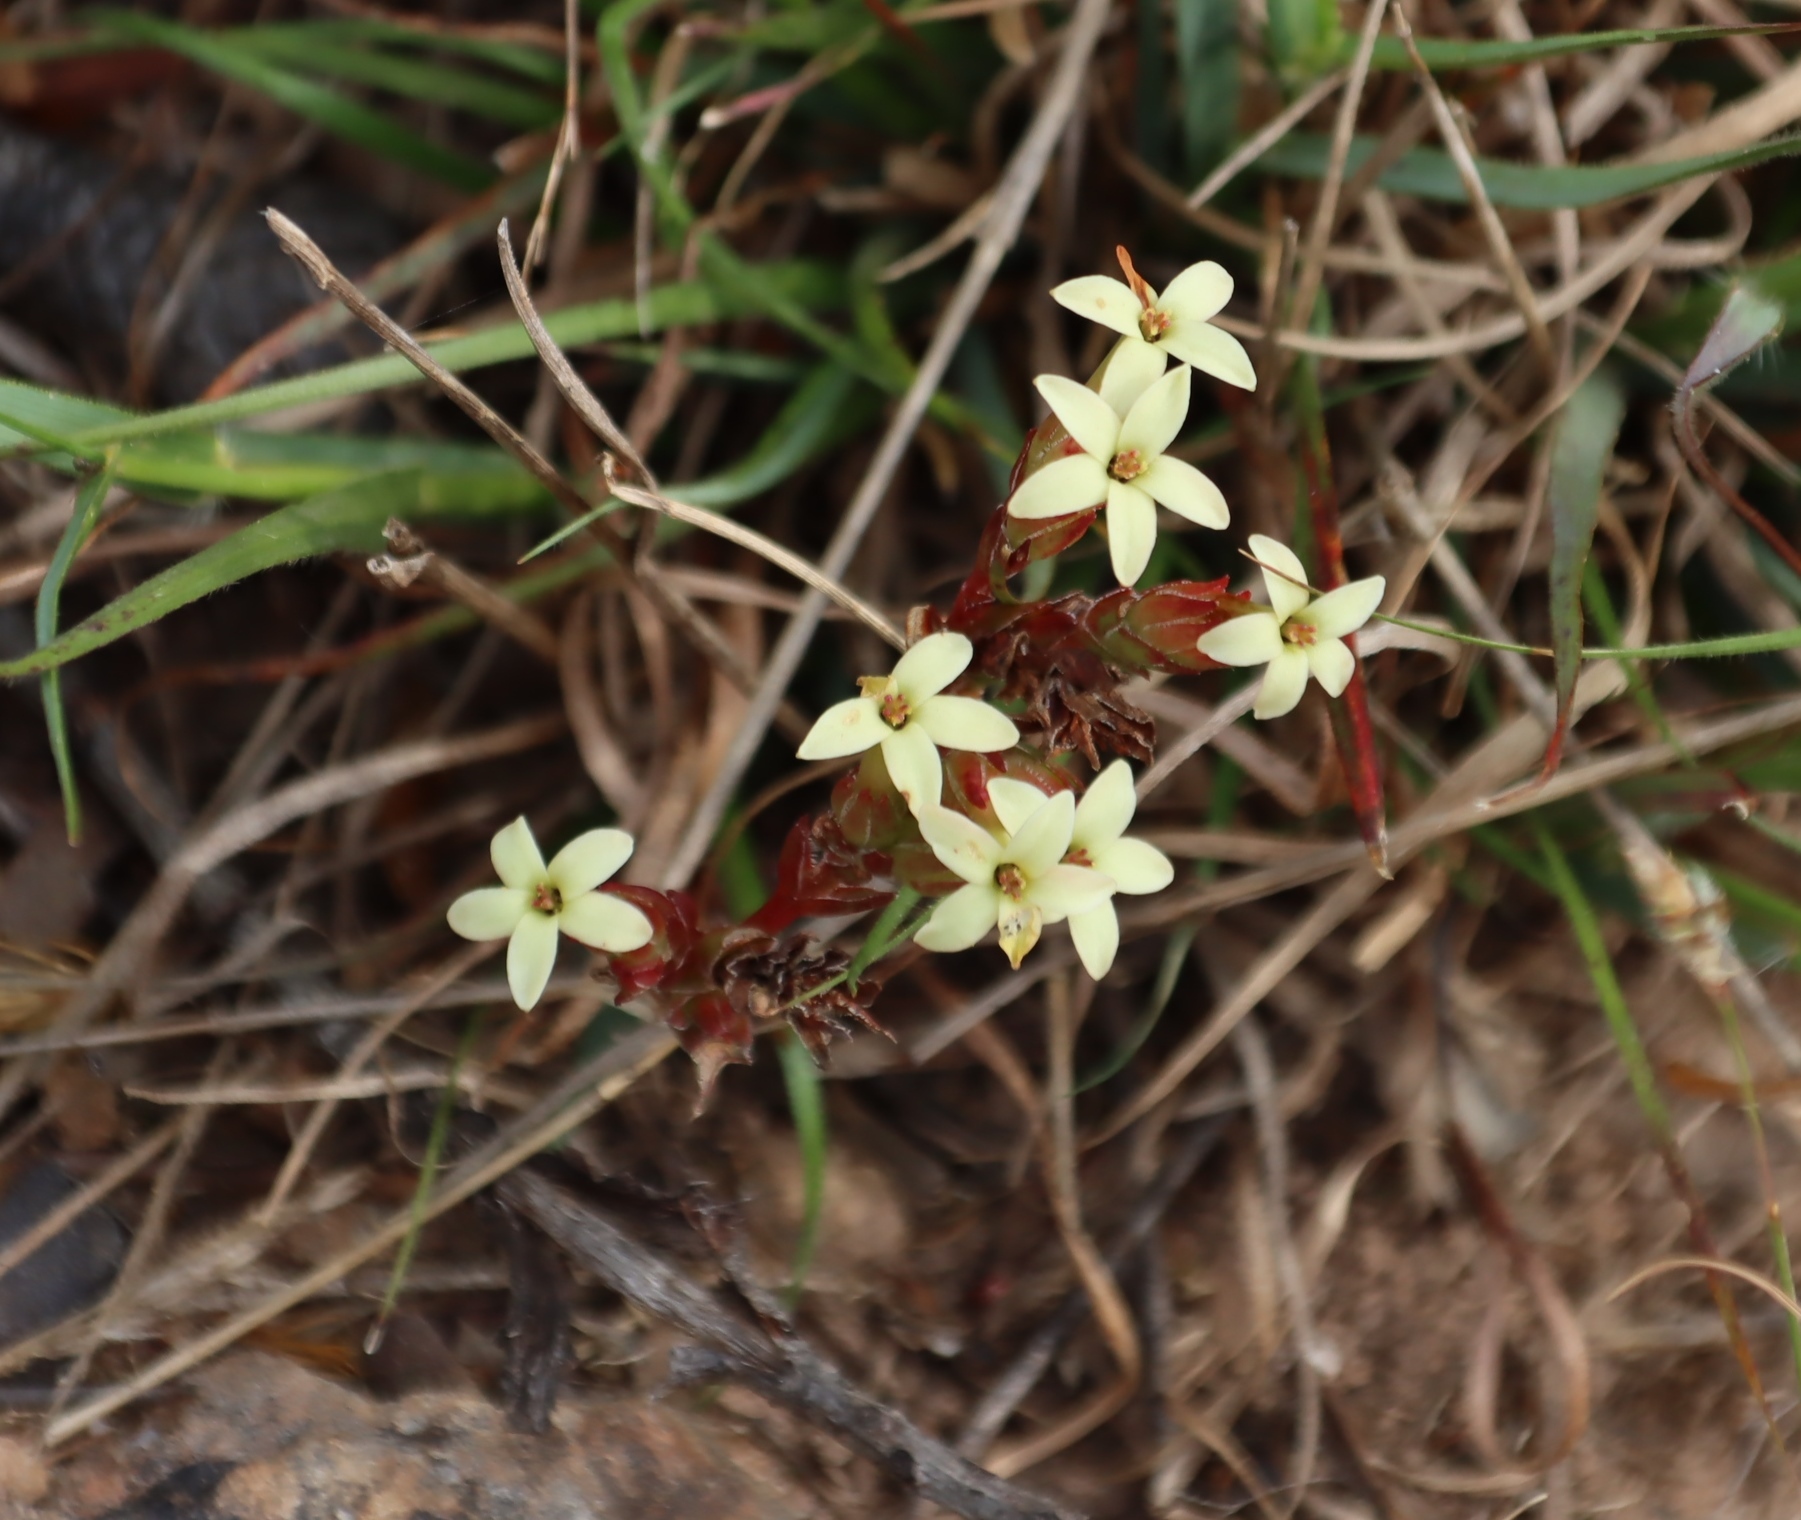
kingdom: Plantae
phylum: Tracheophyta
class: Magnoliopsida
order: Saxifragales
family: Crassulaceae
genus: Crassula
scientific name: Crassula fascicularis
